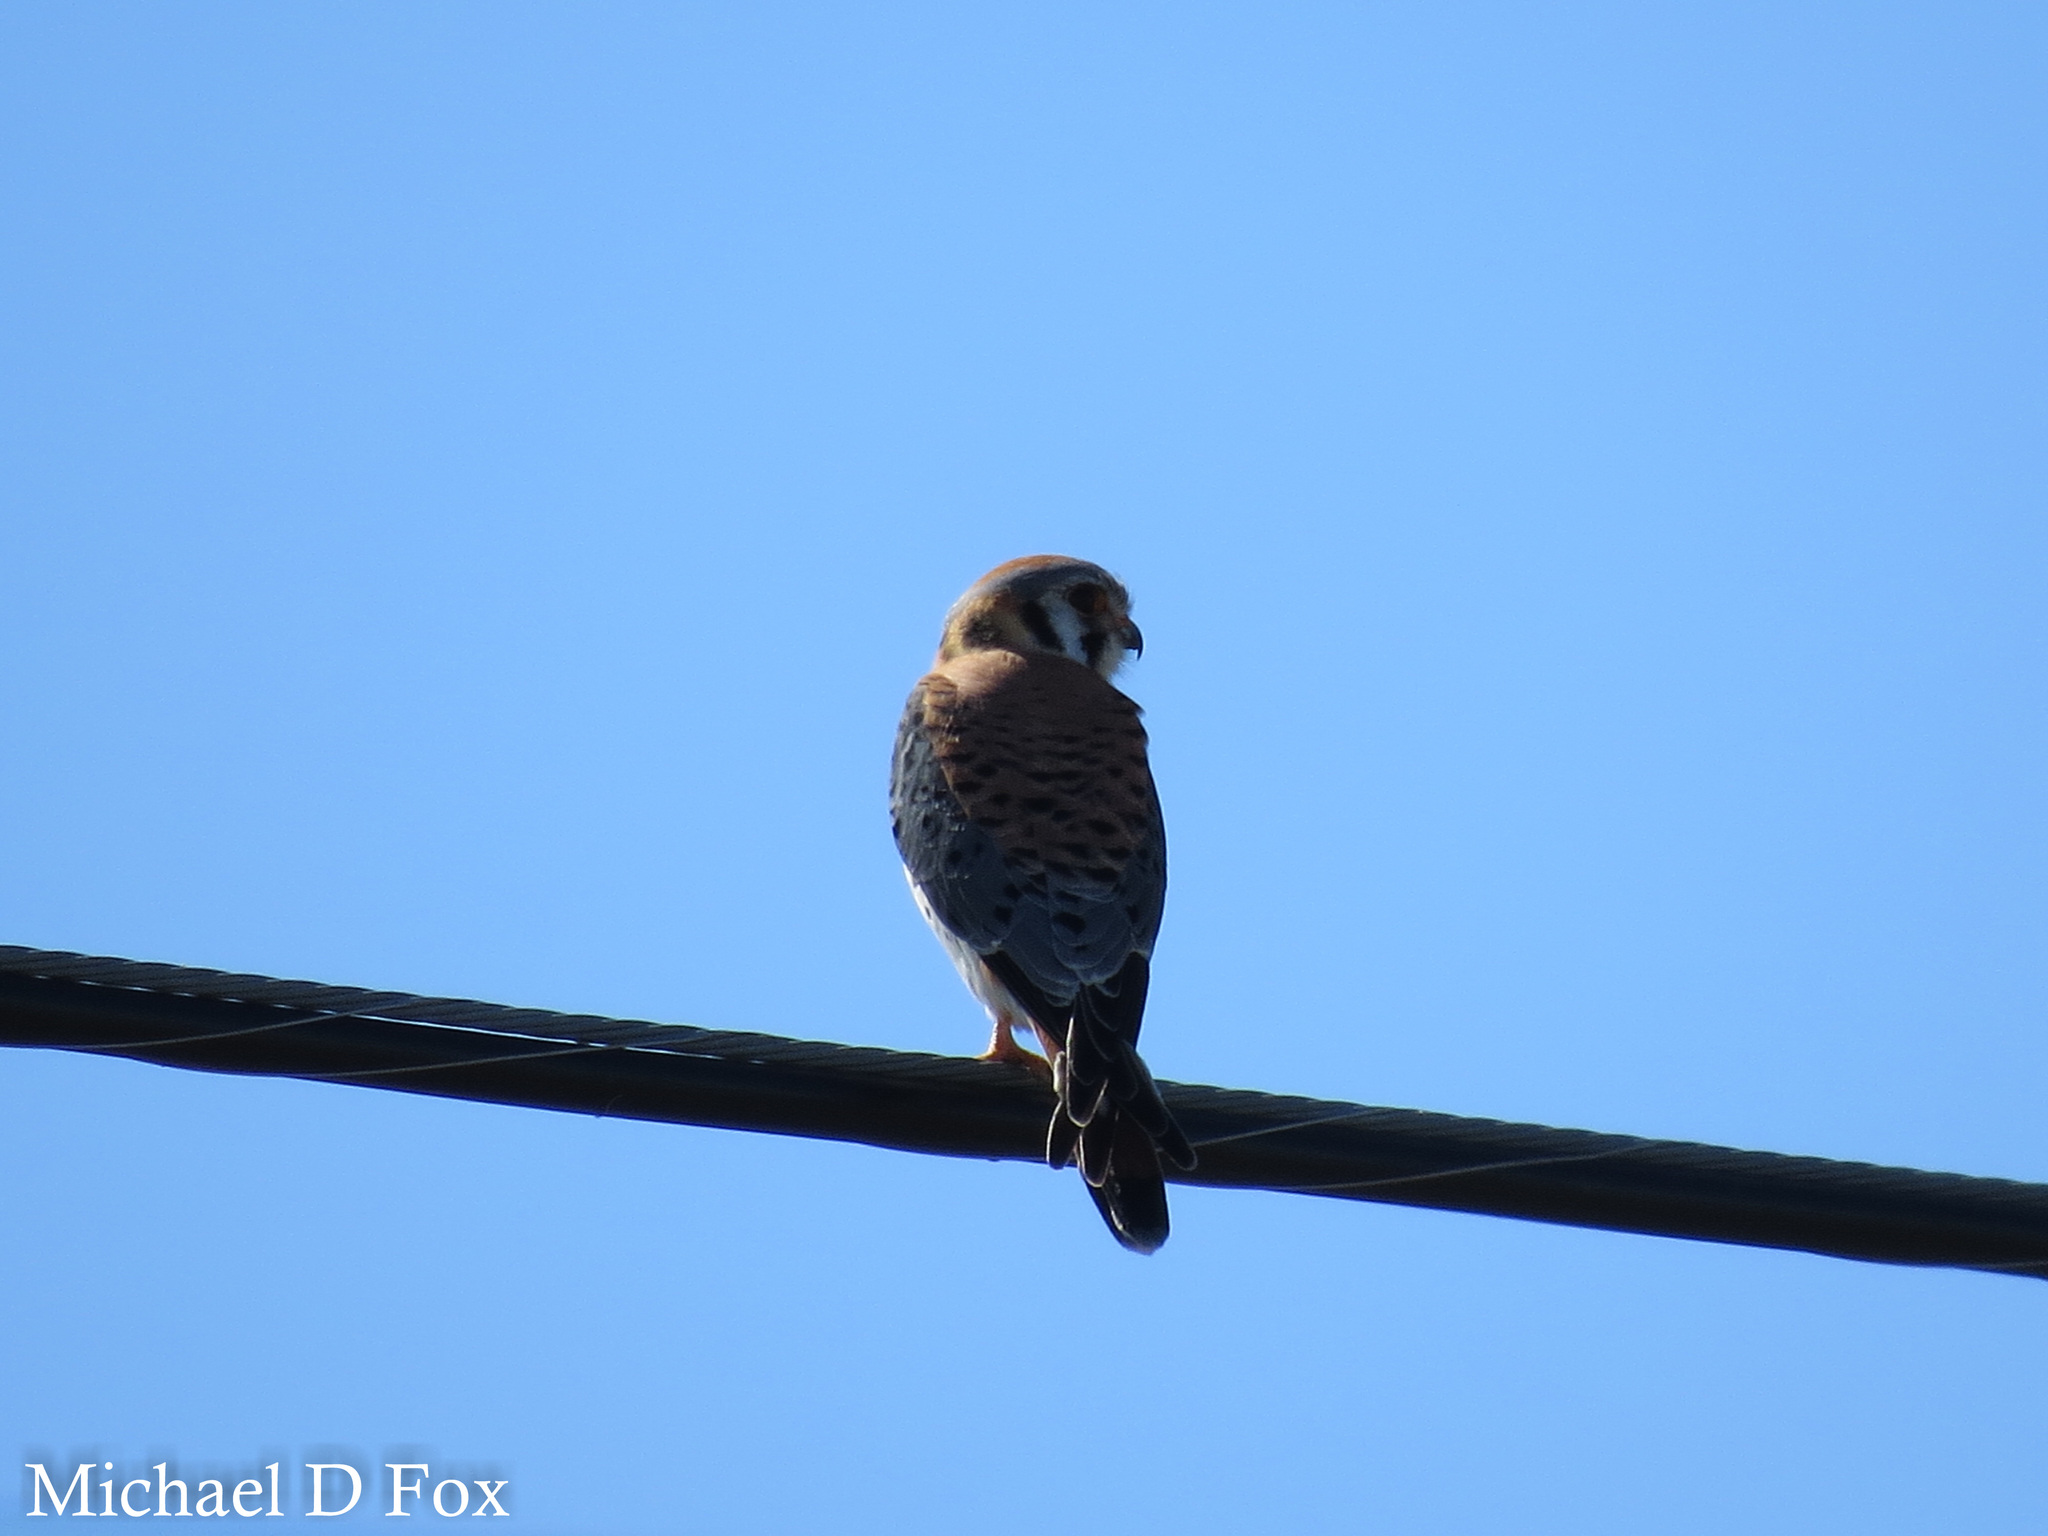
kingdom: Animalia
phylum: Chordata
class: Aves
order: Falconiformes
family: Falconidae
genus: Falco
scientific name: Falco sparverius
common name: American kestrel
